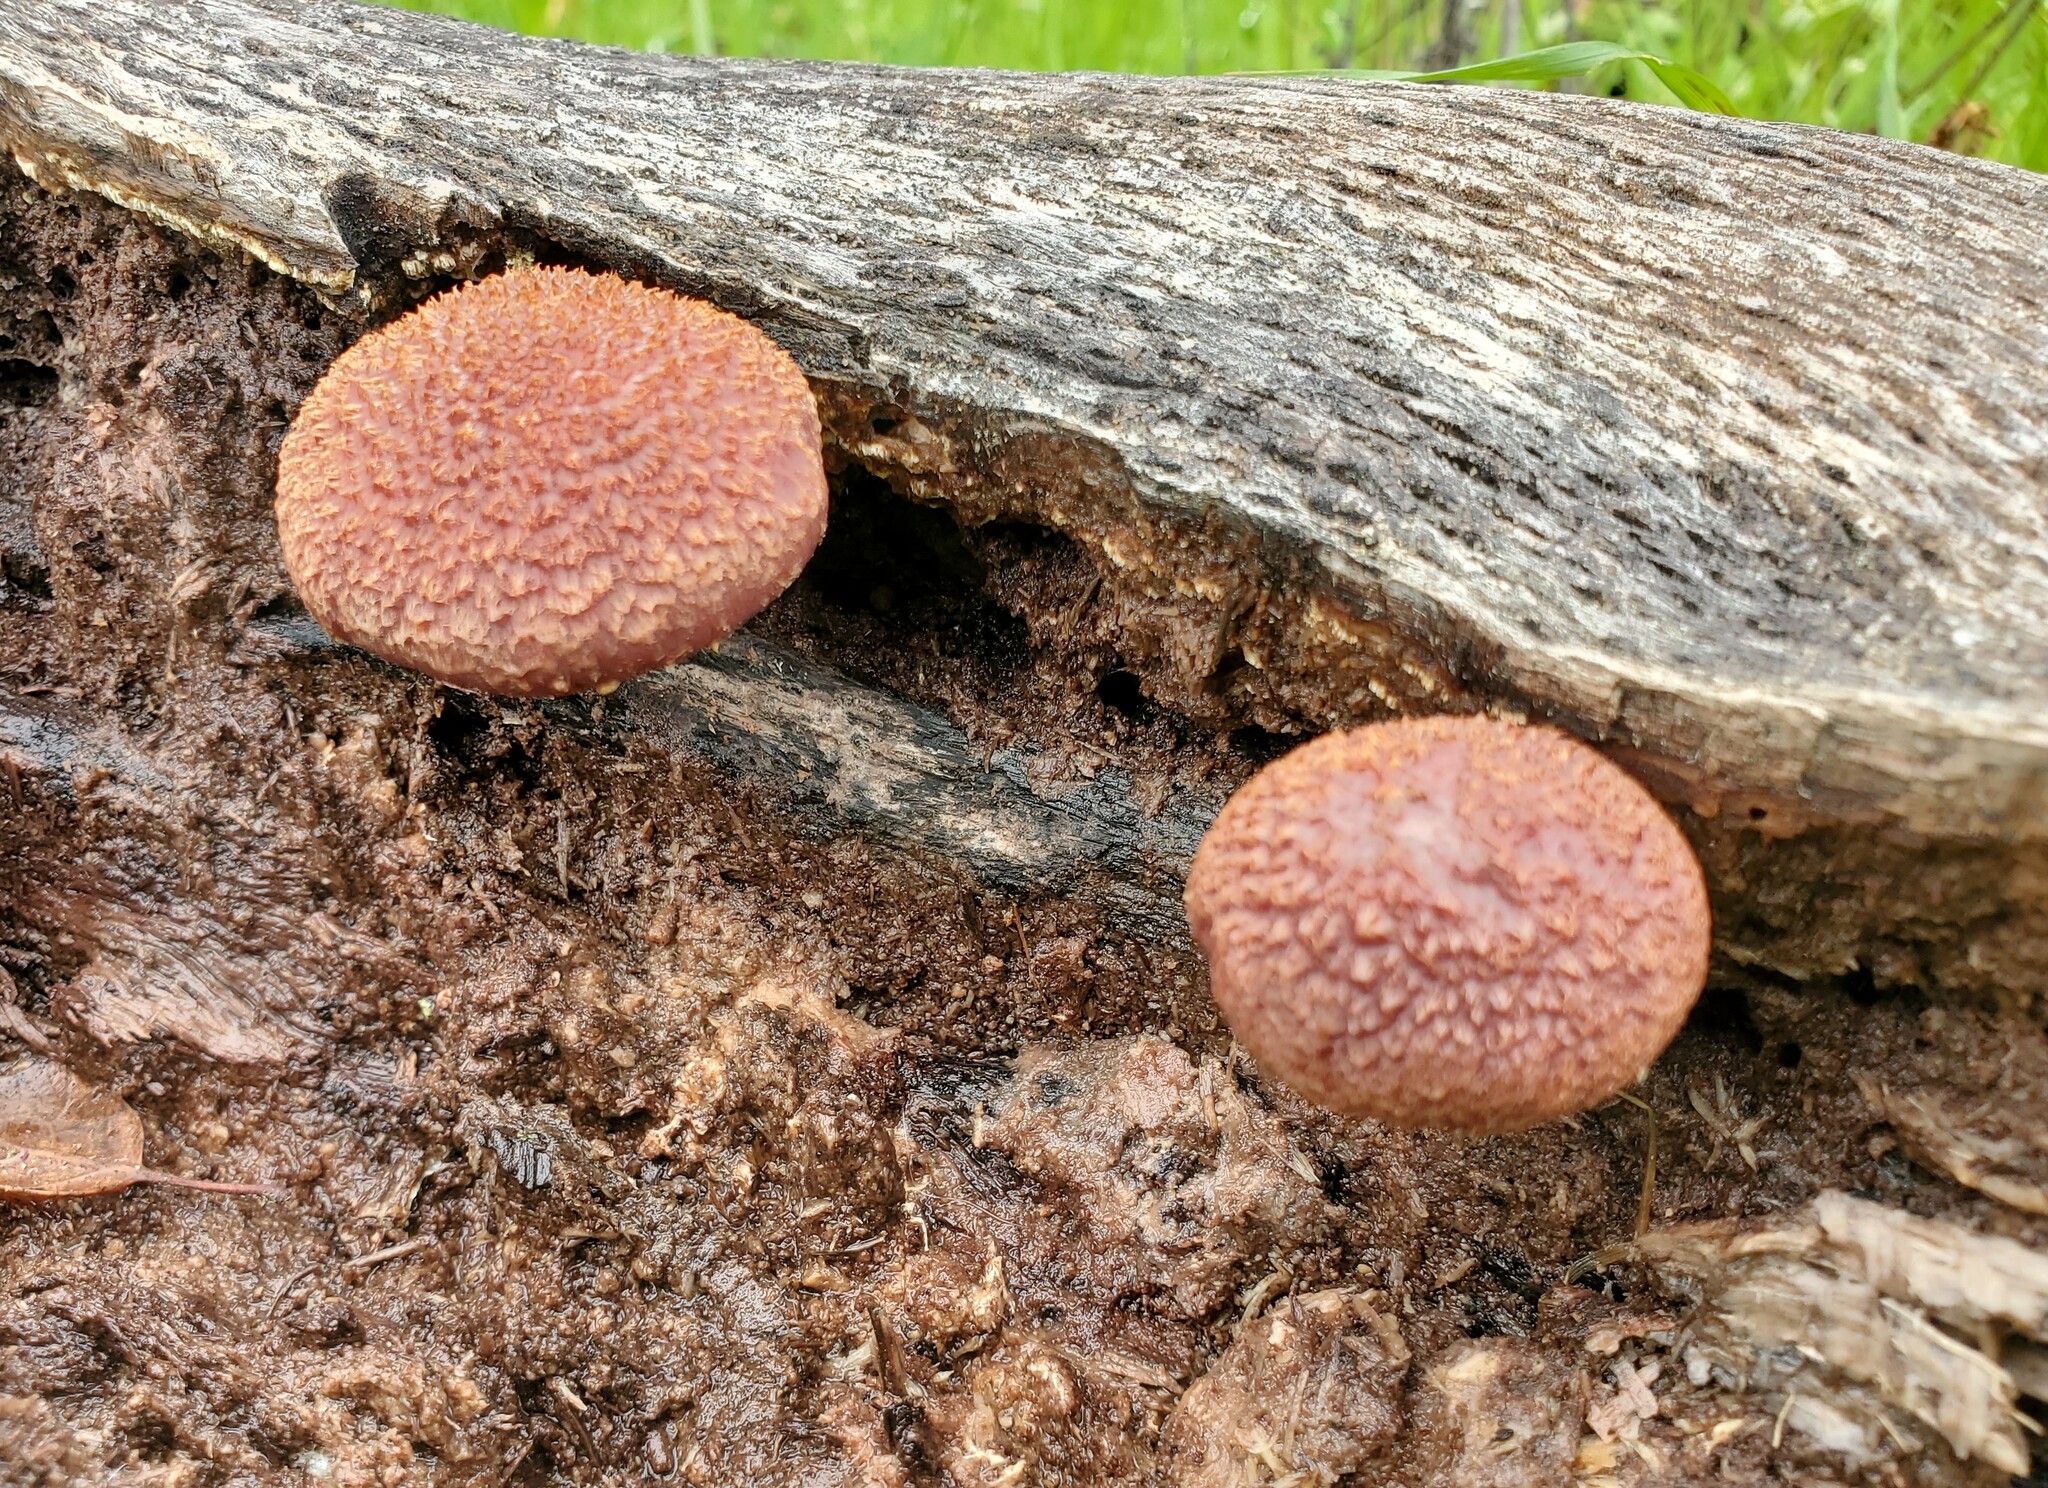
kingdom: Fungi
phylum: Basidiomycota
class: Agaricomycetes
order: Agaricales
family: Hymenogastraceae
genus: Gymnopilus
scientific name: Gymnopilus luteofolius
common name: Yellow-gilled gymnopilus
